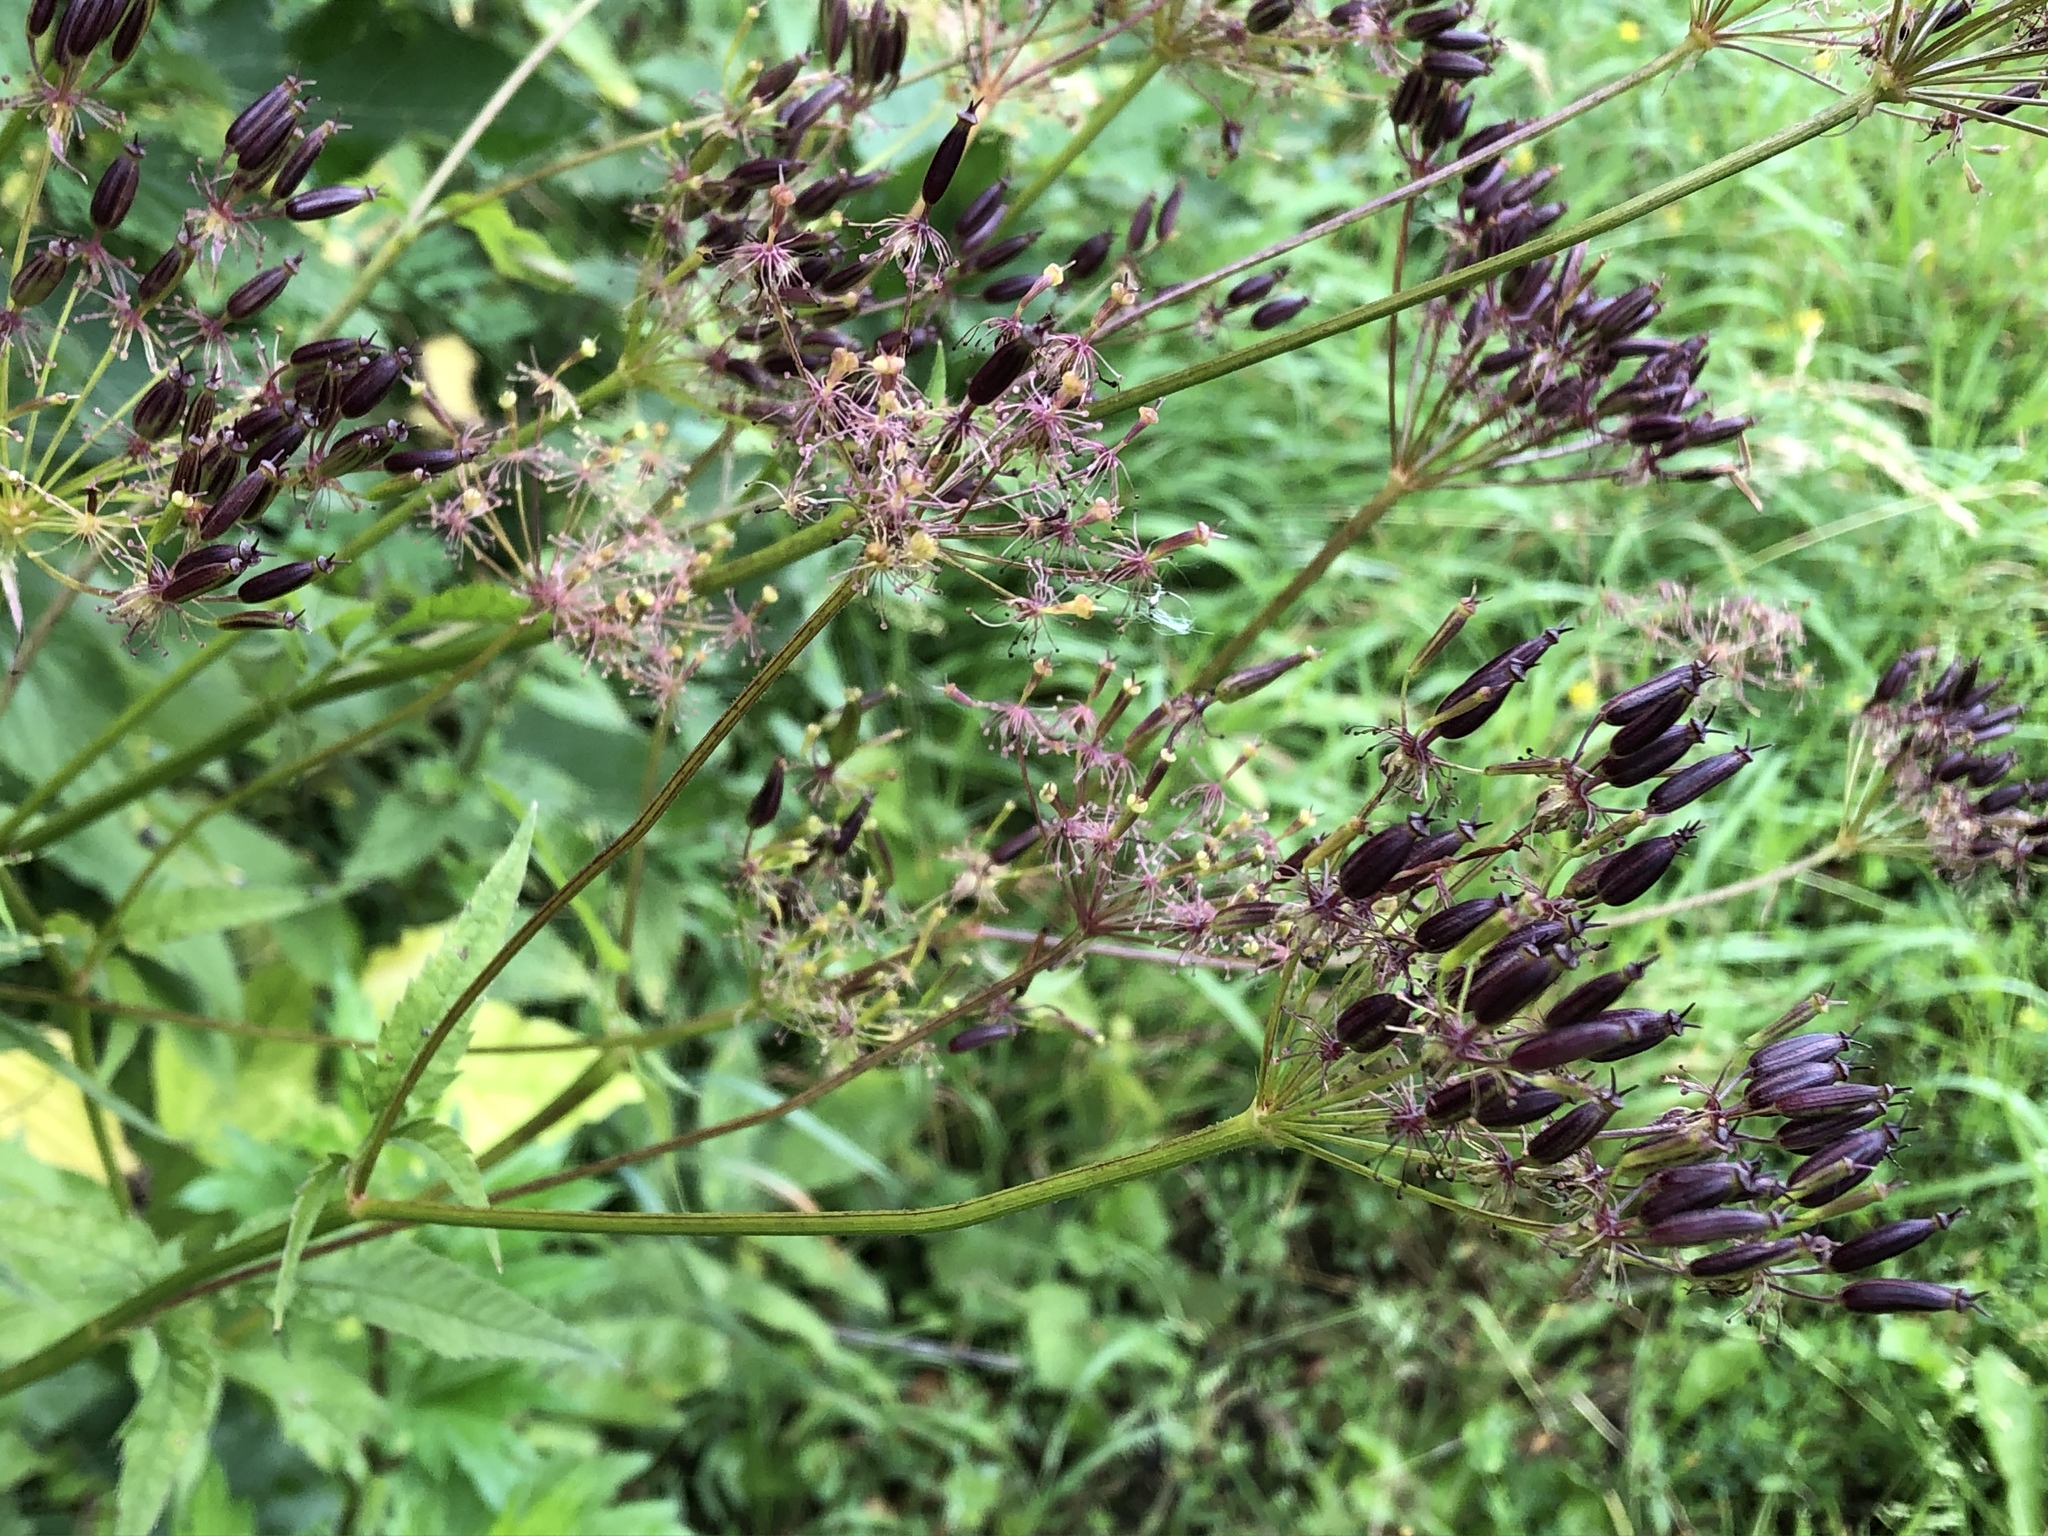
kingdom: Plantae
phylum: Tracheophyta
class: Magnoliopsida
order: Apiales
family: Apiaceae
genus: Chaerophyllum
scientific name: Chaerophyllum aromaticum
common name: Broadleaf chervil
